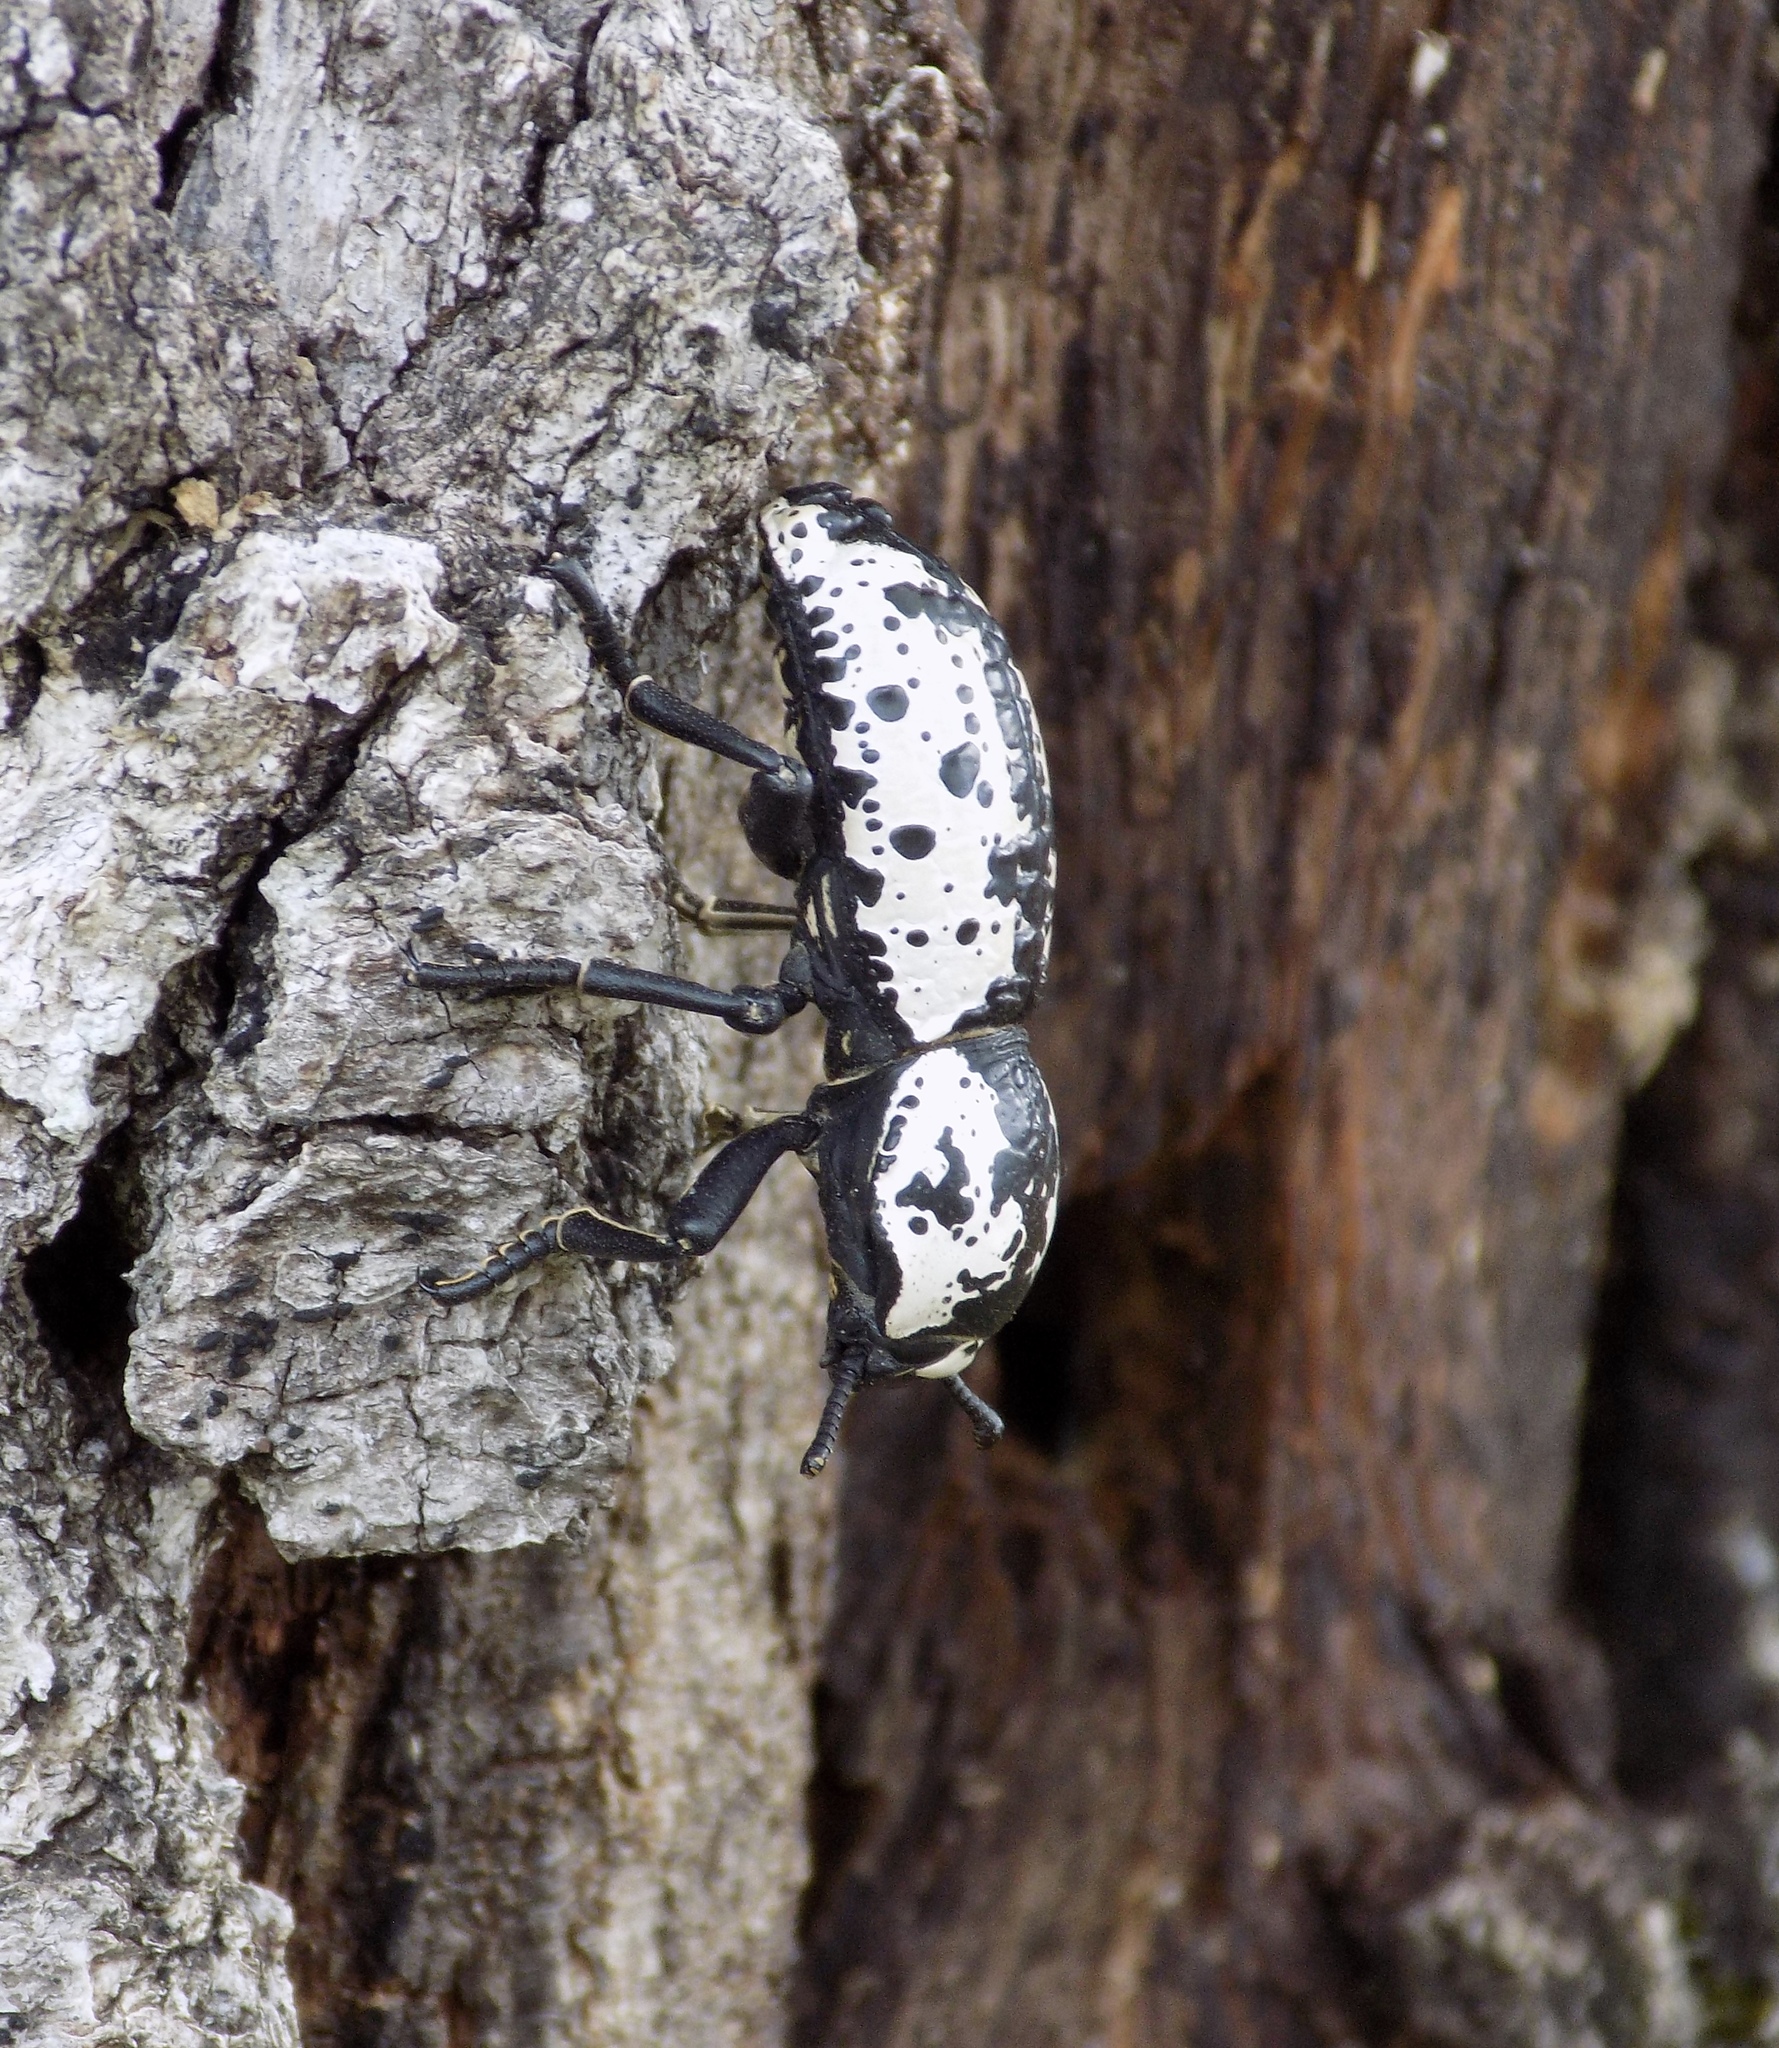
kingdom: Animalia
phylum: Arthropoda
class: Insecta
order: Coleoptera
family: Zopheridae
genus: Zopherus
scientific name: Zopherus nodulosus
